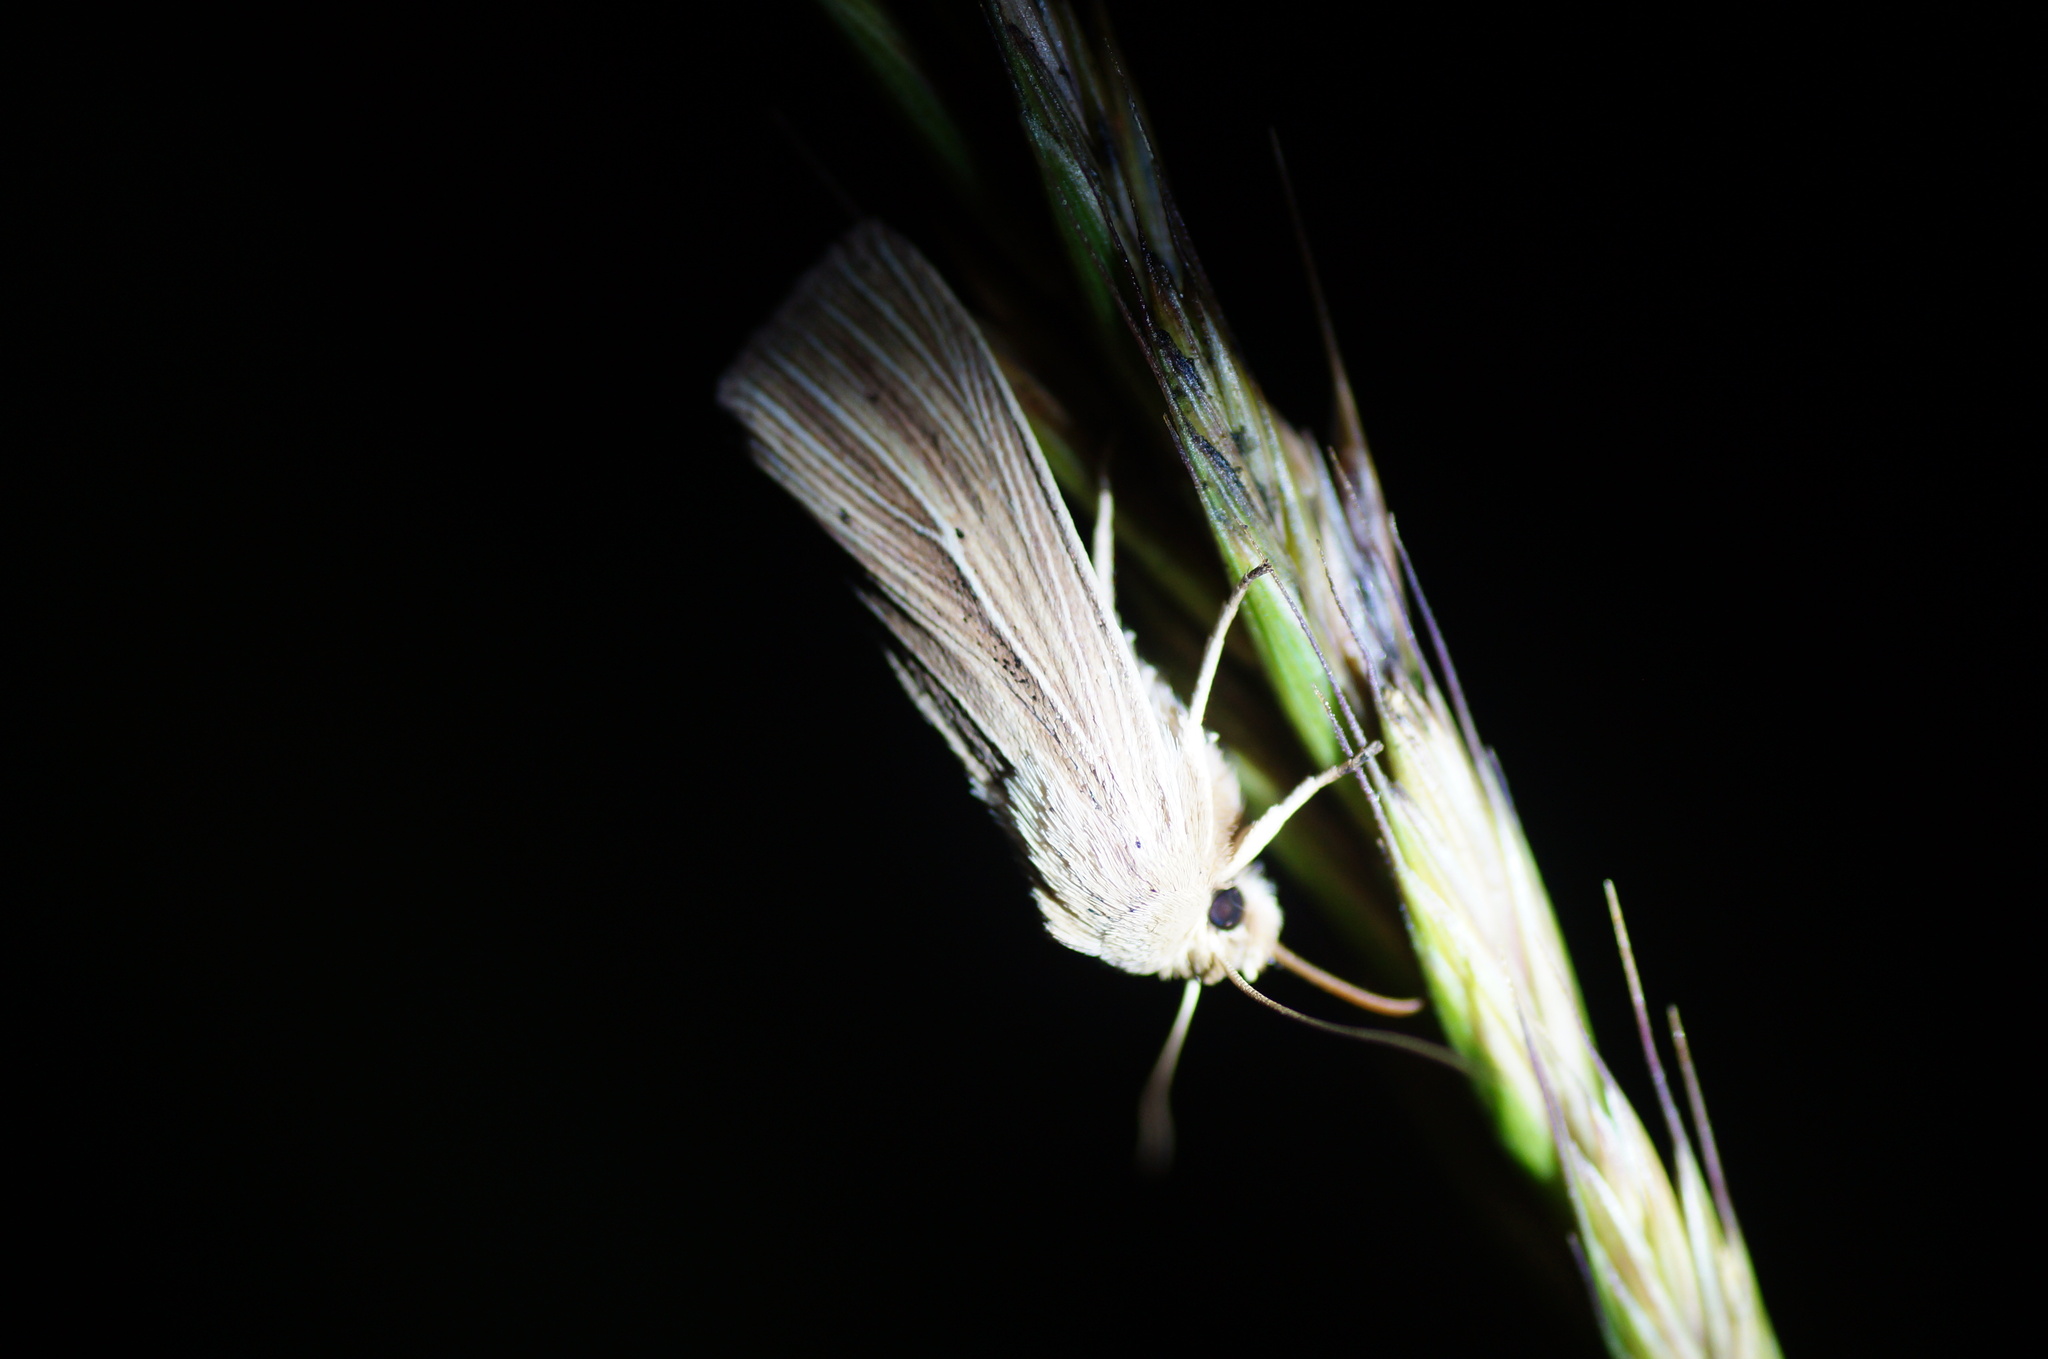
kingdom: Animalia
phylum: Arthropoda
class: Insecta
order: Lepidoptera
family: Noctuidae
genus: Mythimna
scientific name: Mythimna impura
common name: Smoky wainscot
